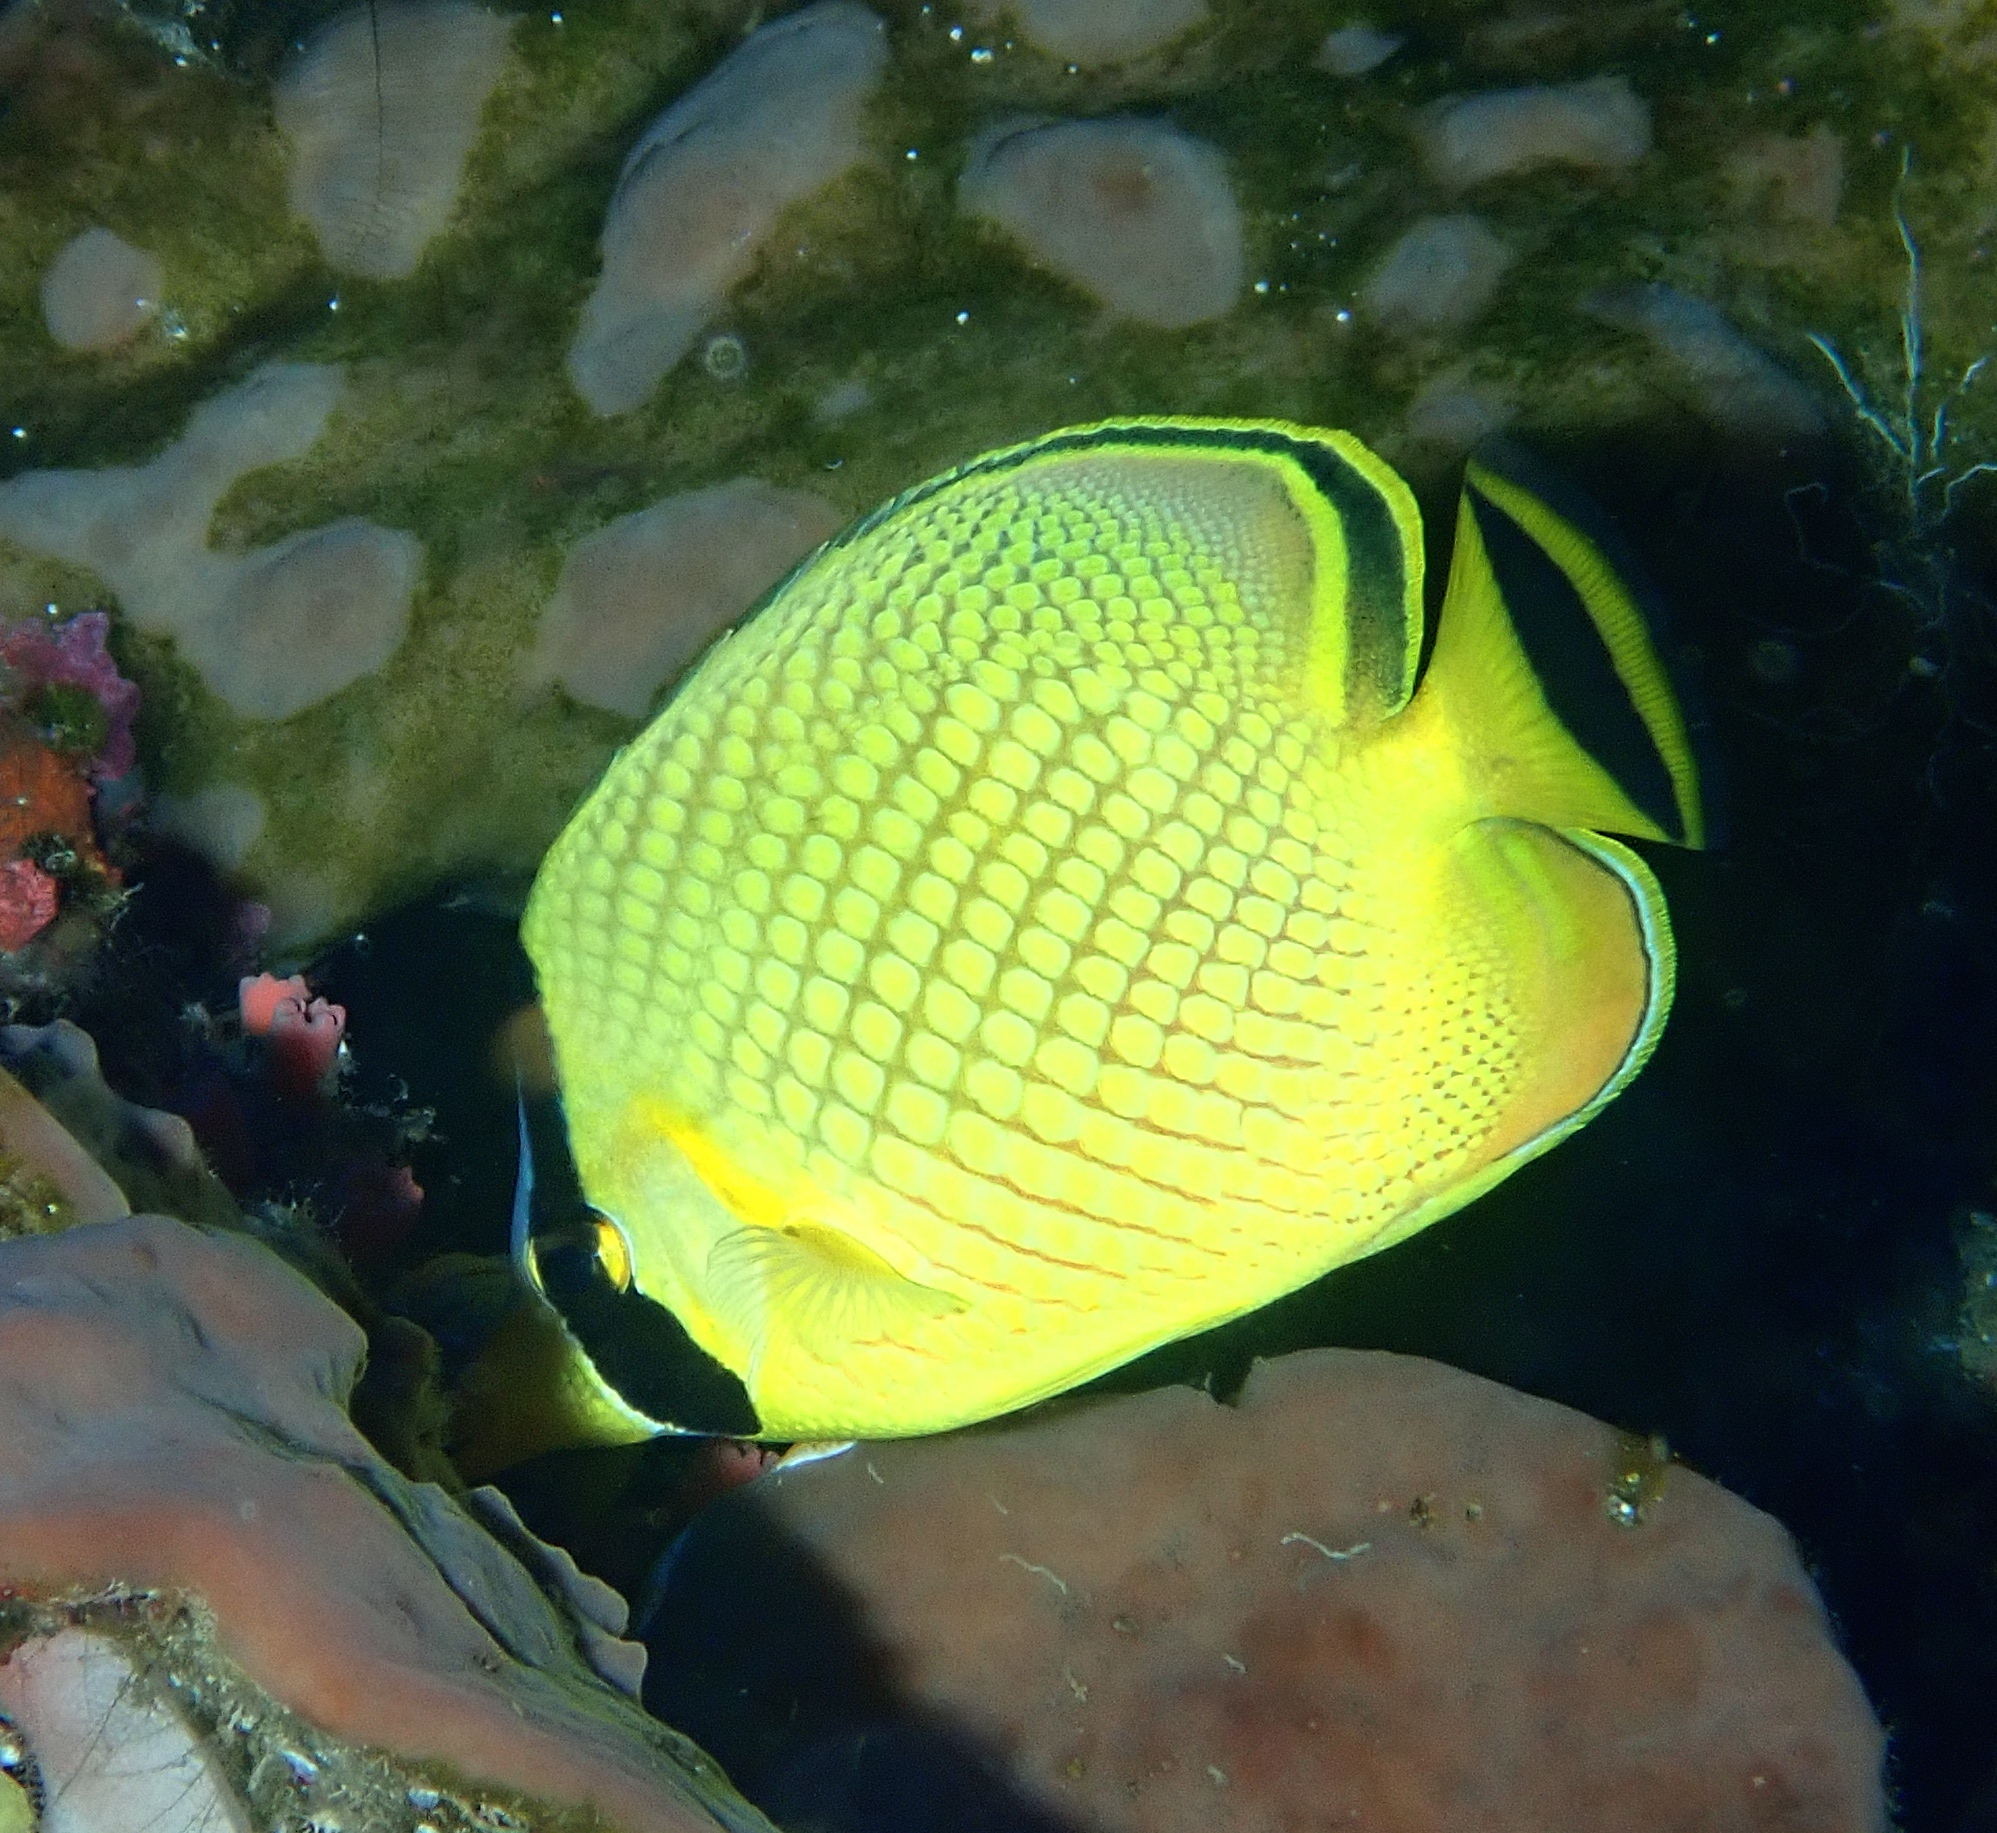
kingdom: Animalia
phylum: Chordata
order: Perciformes
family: Chaetodontidae
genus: Chaetodon
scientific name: Chaetodon rafflesii
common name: Latticed butterflyfish
